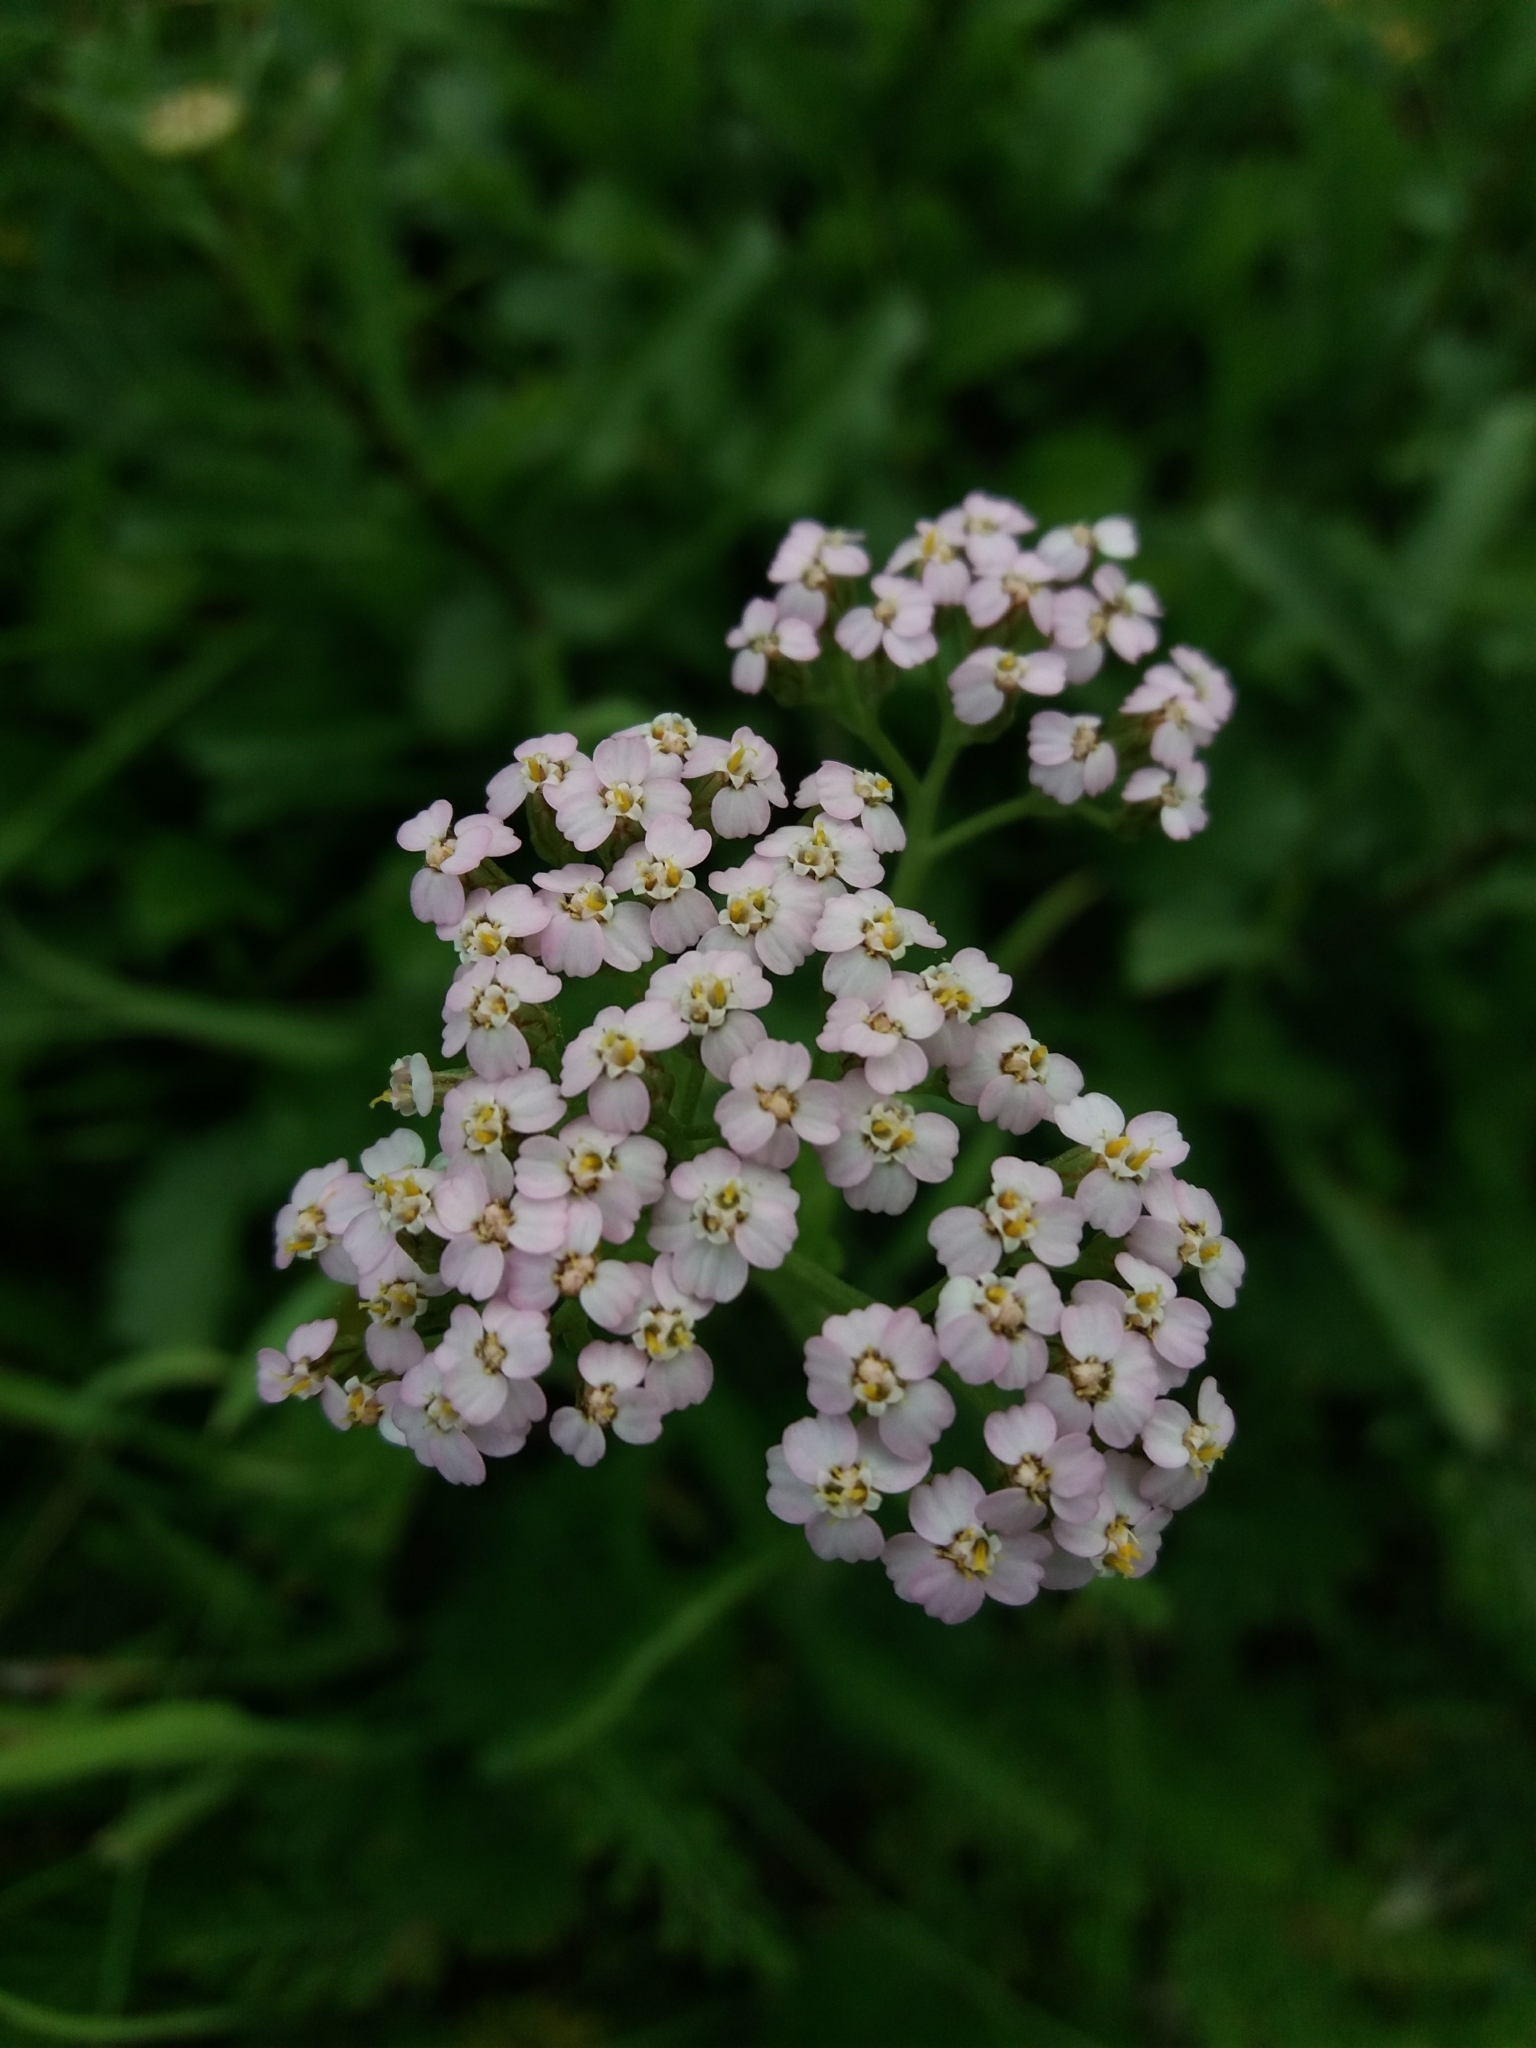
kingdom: Plantae
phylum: Tracheophyta
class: Magnoliopsida
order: Asterales
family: Asteraceae
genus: Achillea
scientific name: Achillea millefolium
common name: Yarrow
